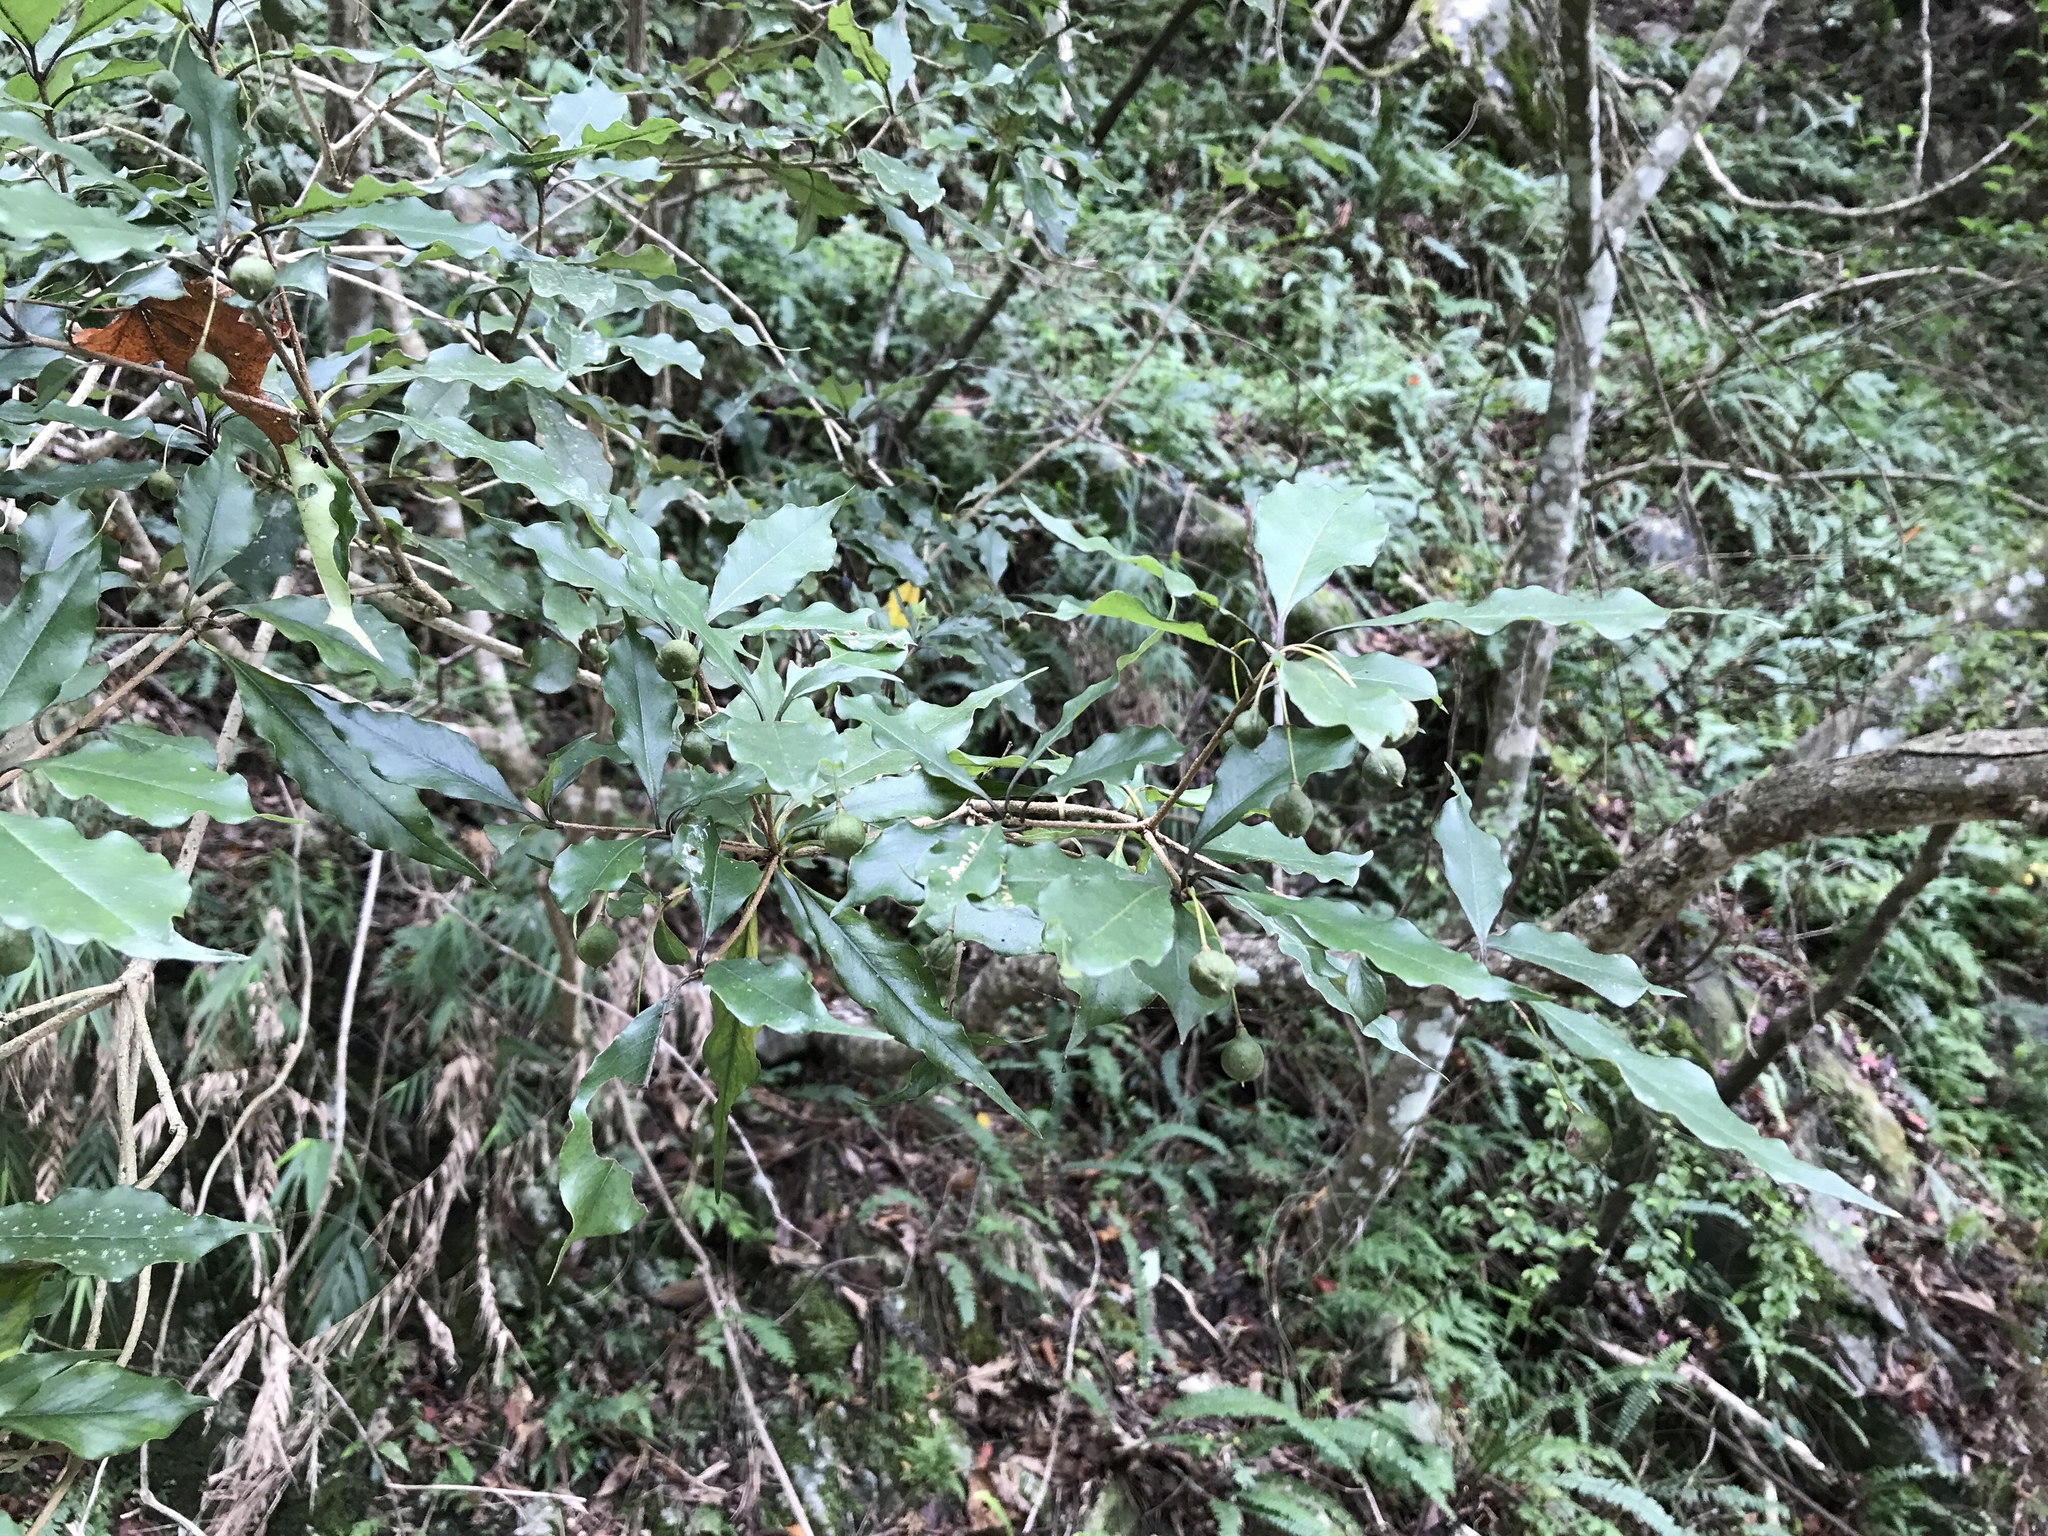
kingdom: Plantae
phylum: Tracheophyta
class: Magnoliopsida
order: Apiales
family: Pittosporaceae
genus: Pittosporum
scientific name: Pittosporum illicioides
